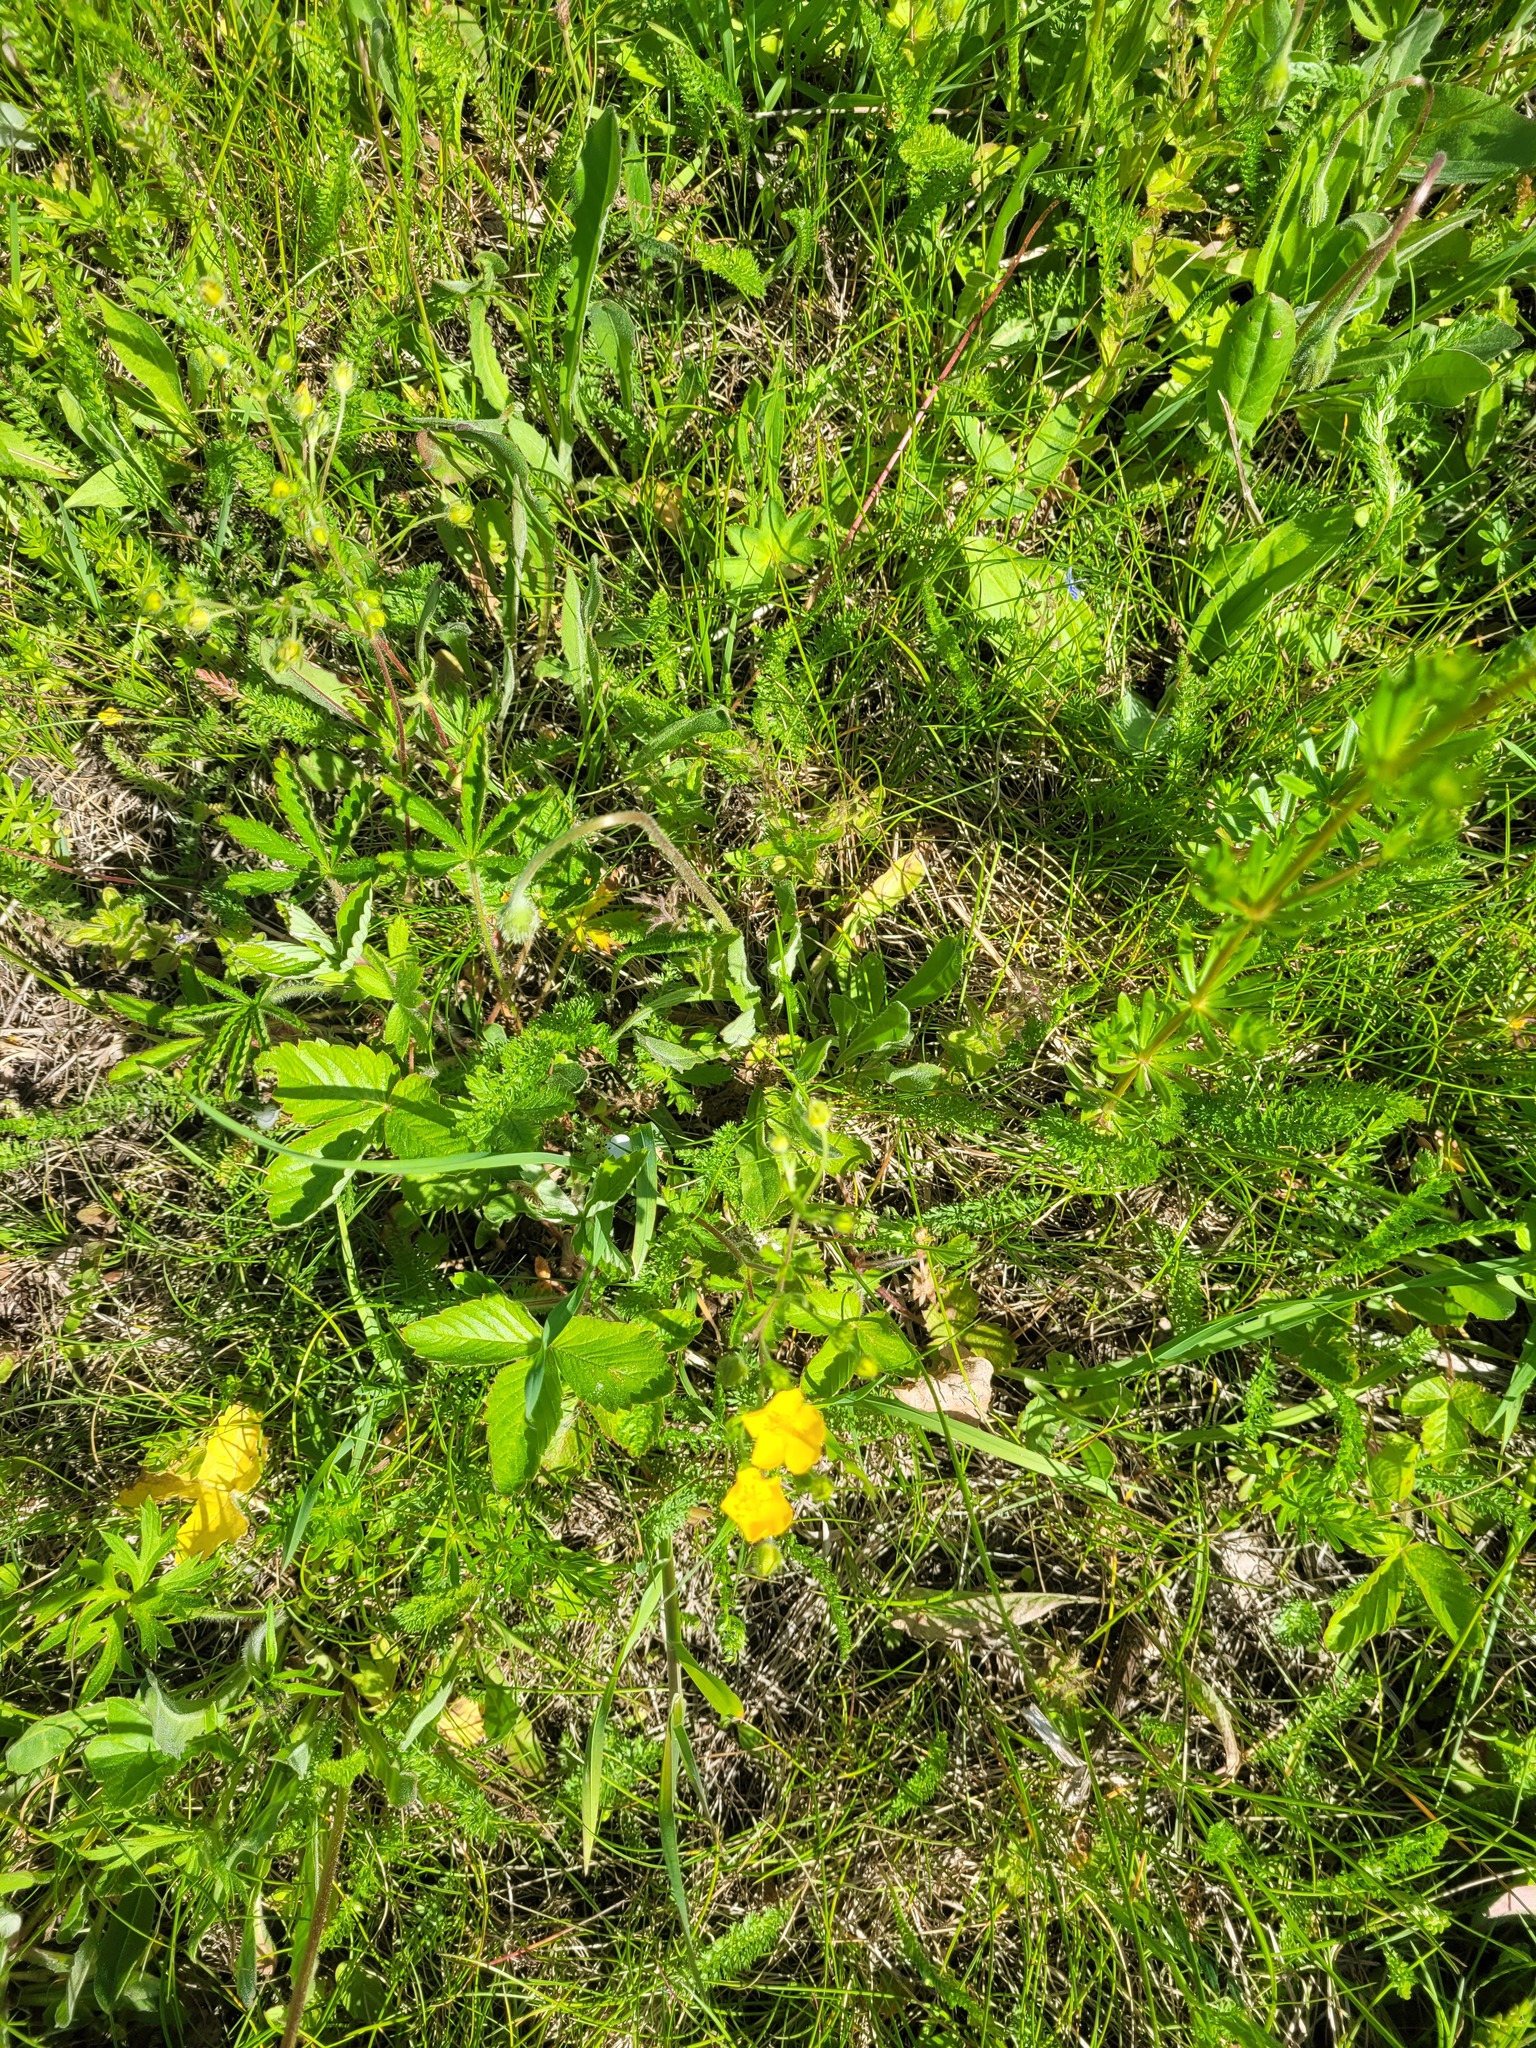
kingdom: Plantae
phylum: Tracheophyta
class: Magnoliopsida
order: Rosales
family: Rosaceae
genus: Potentilla
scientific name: Potentilla thuringiaca
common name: European cinquefoil
